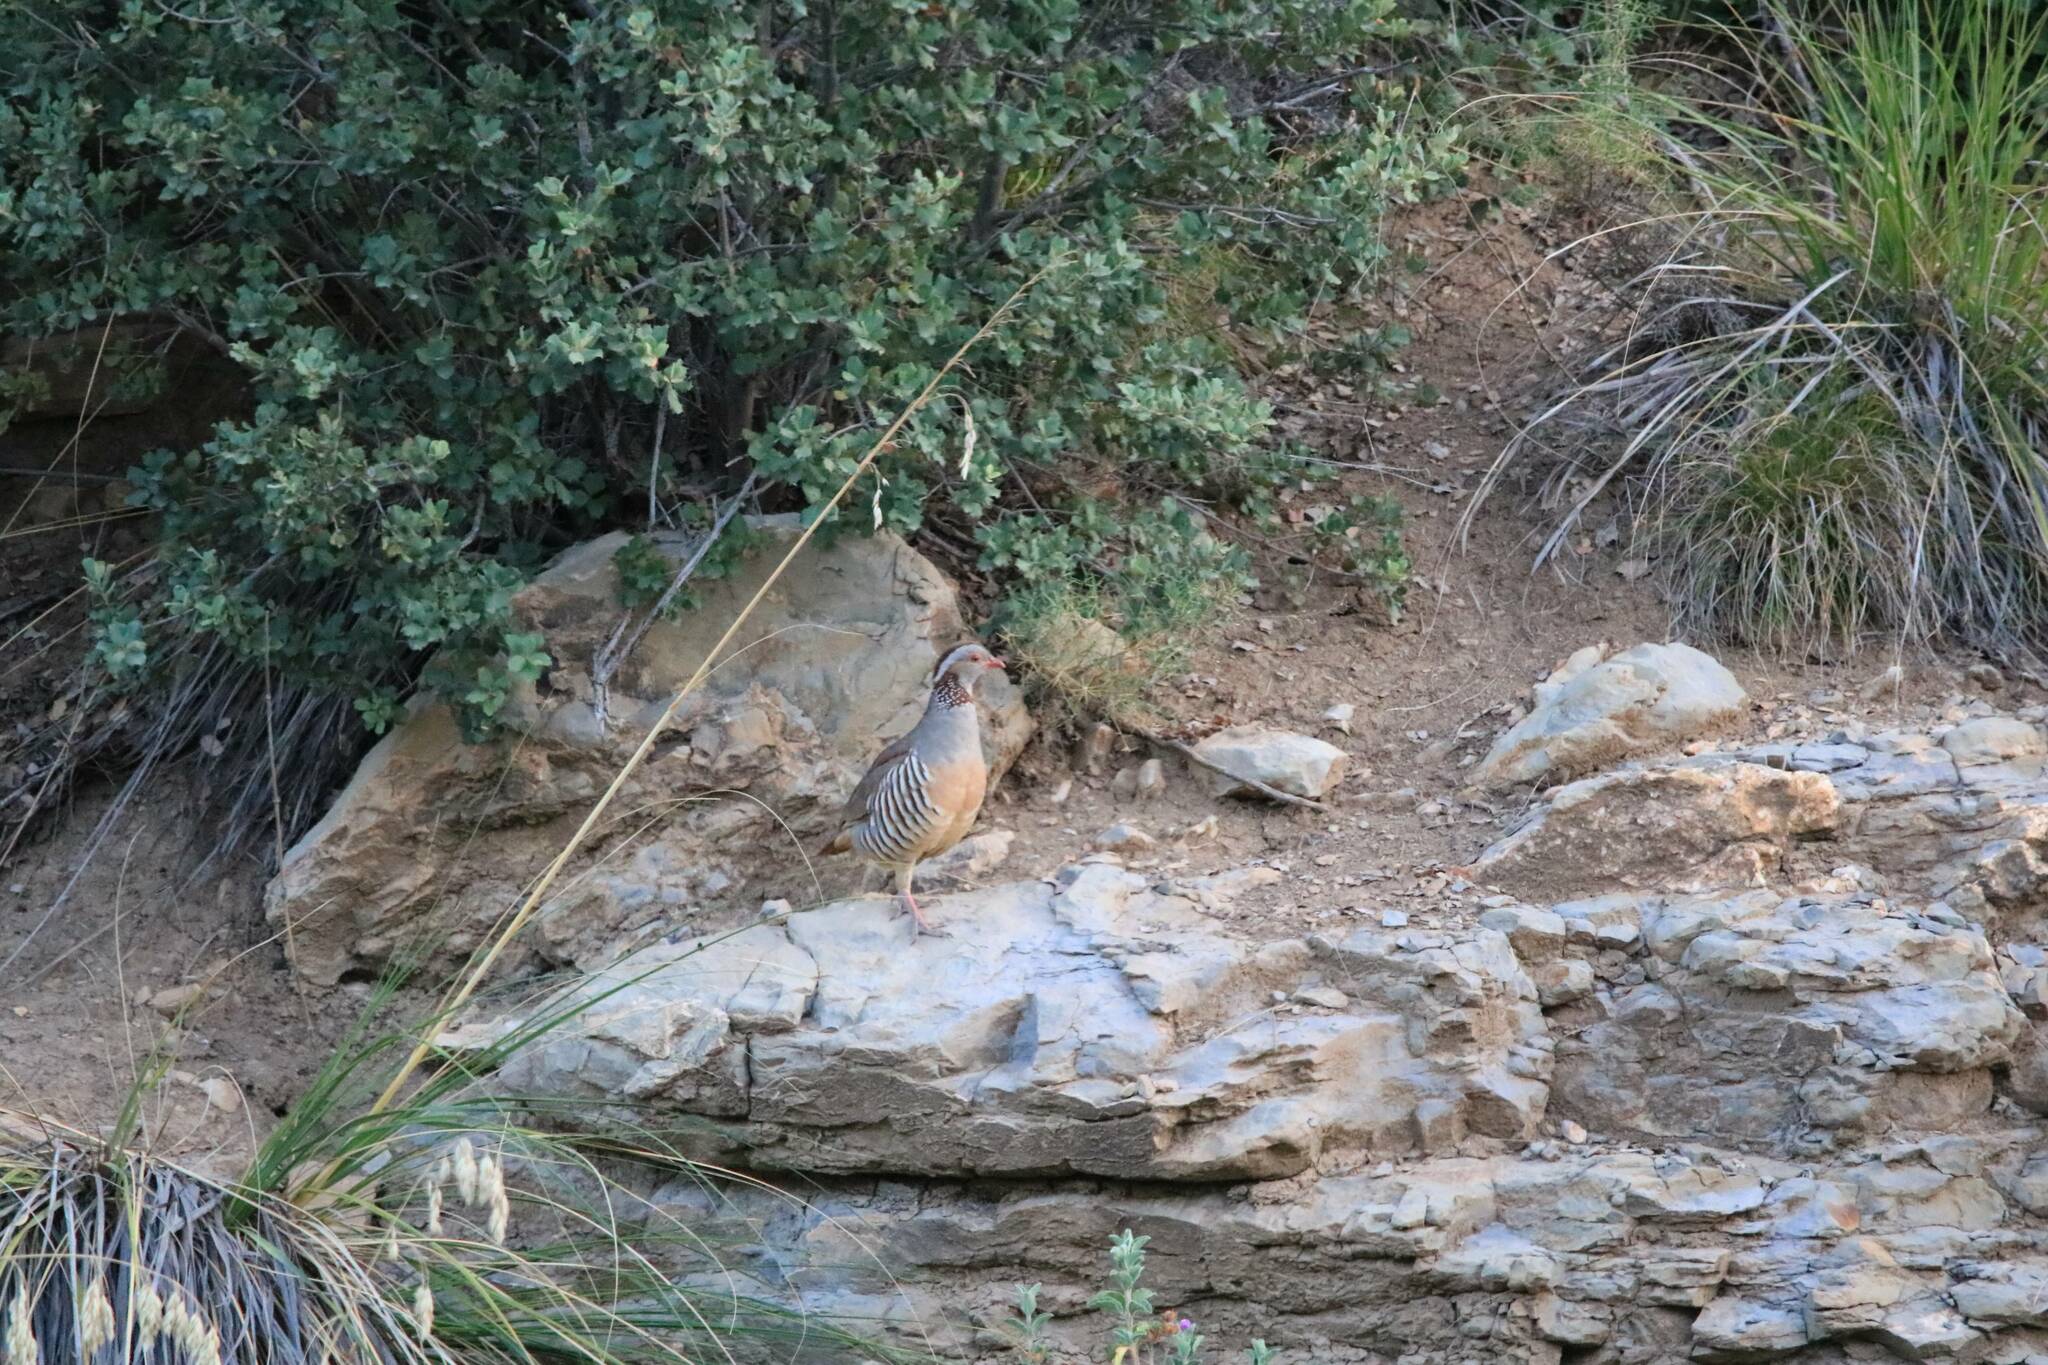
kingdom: Animalia
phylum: Chordata
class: Aves
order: Galliformes
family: Phasianidae
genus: Alectoris
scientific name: Alectoris barbara
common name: Barbary partridge
